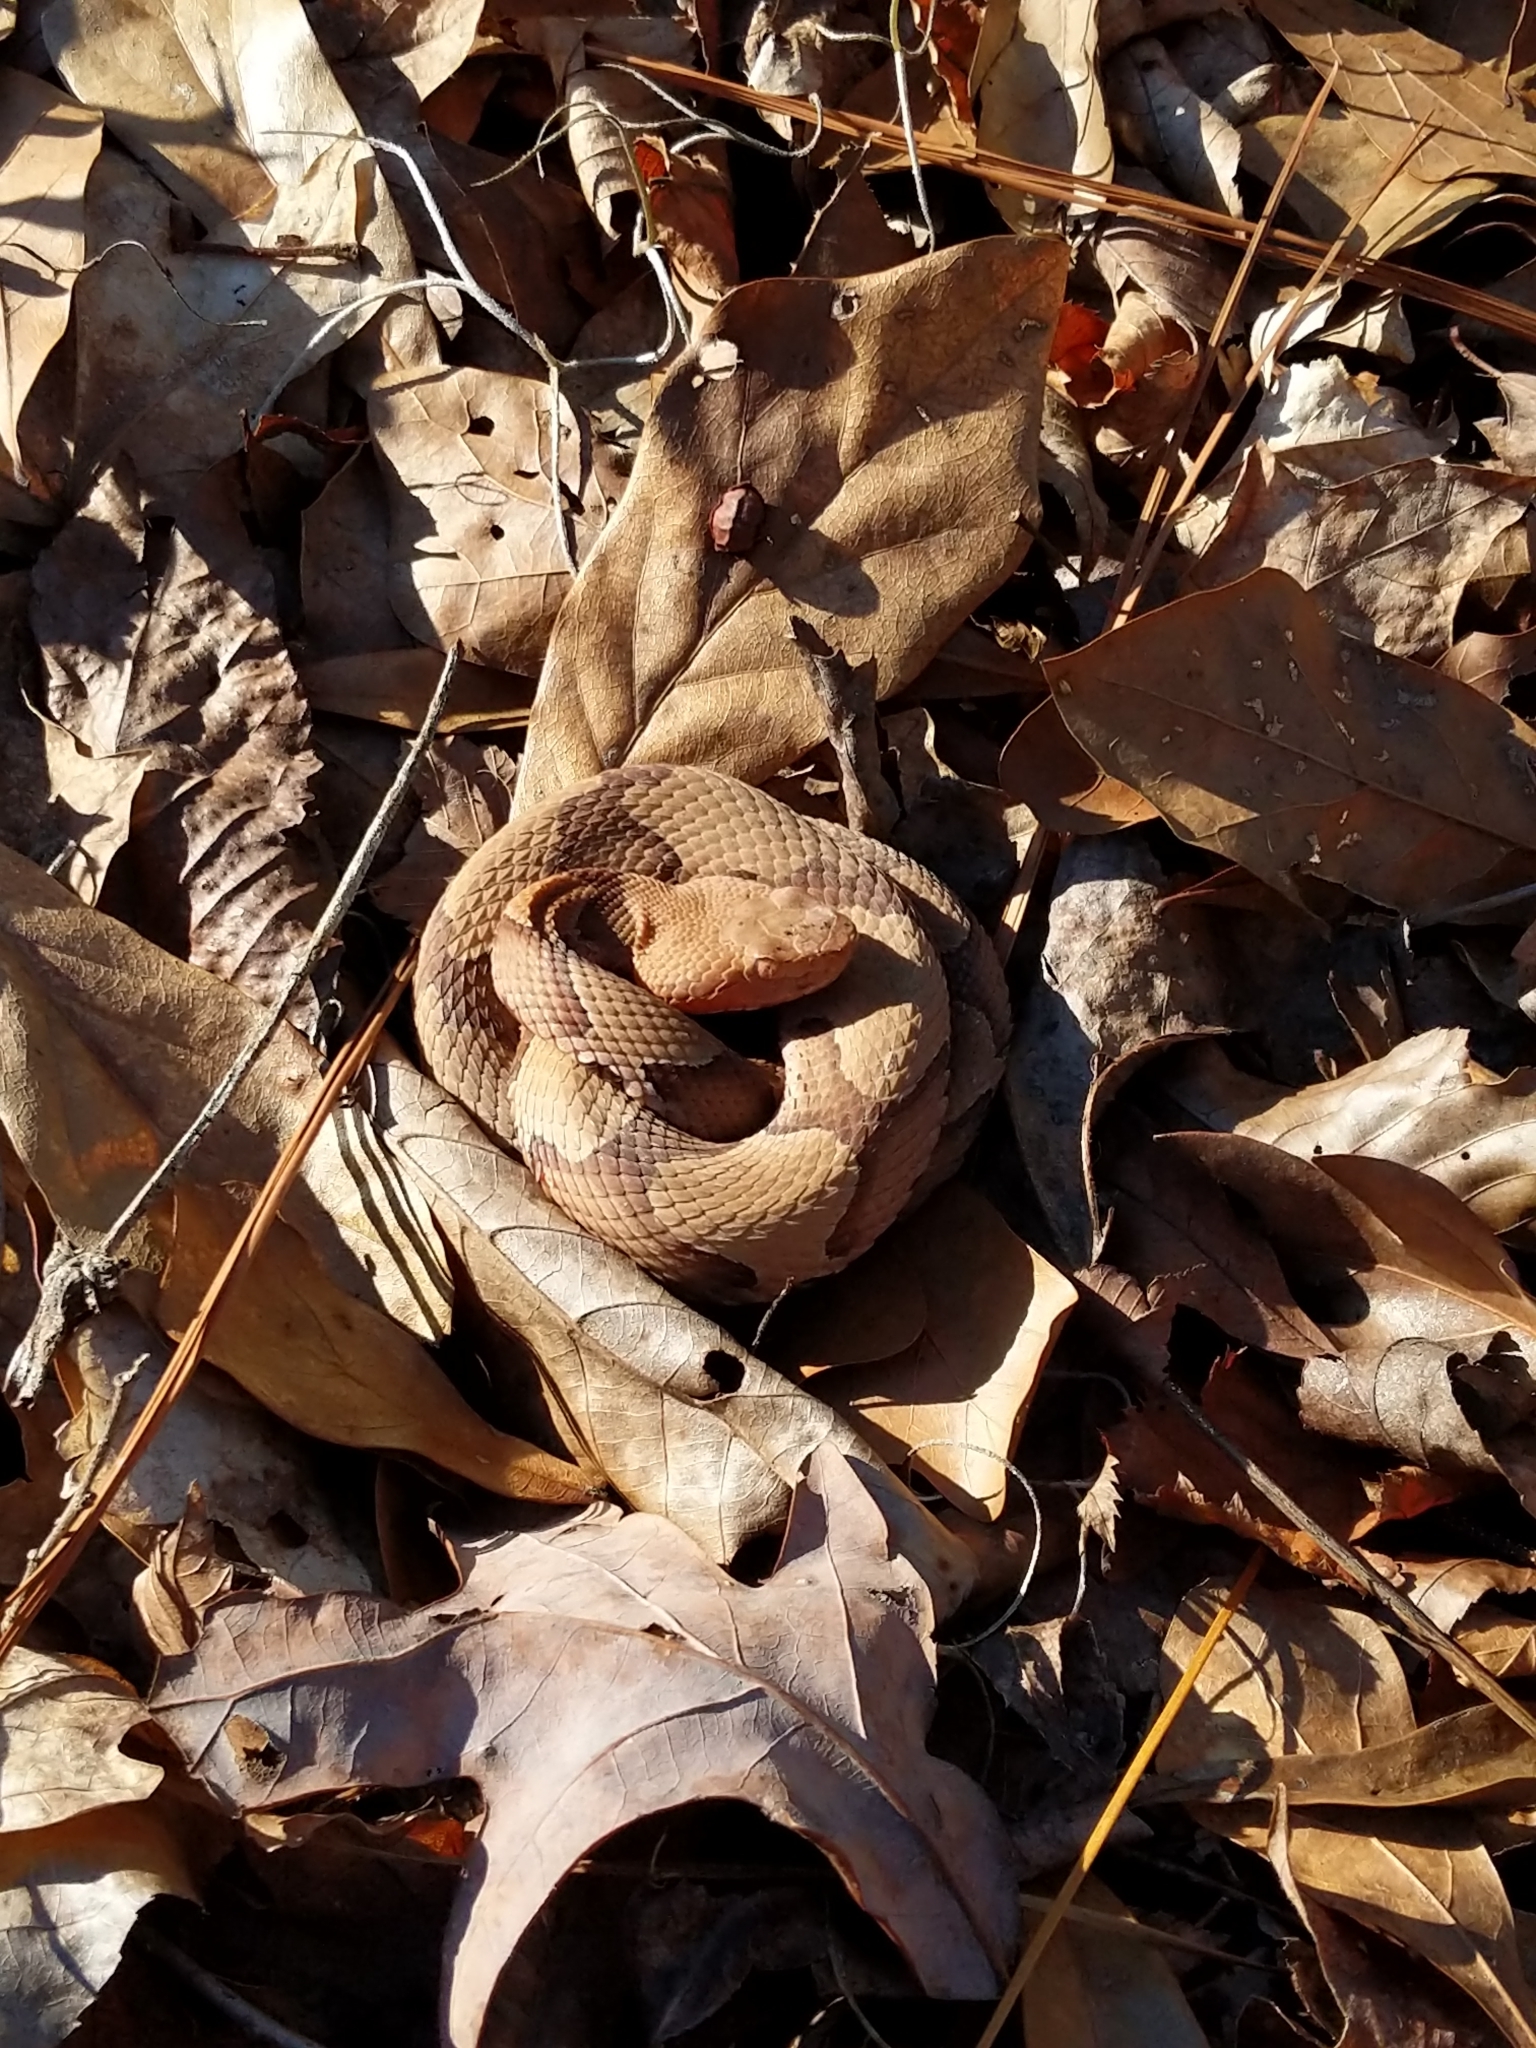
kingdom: Animalia
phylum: Chordata
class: Squamata
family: Viperidae
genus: Agkistrodon
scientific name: Agkistrodon contortrix
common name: Northern copperhead
